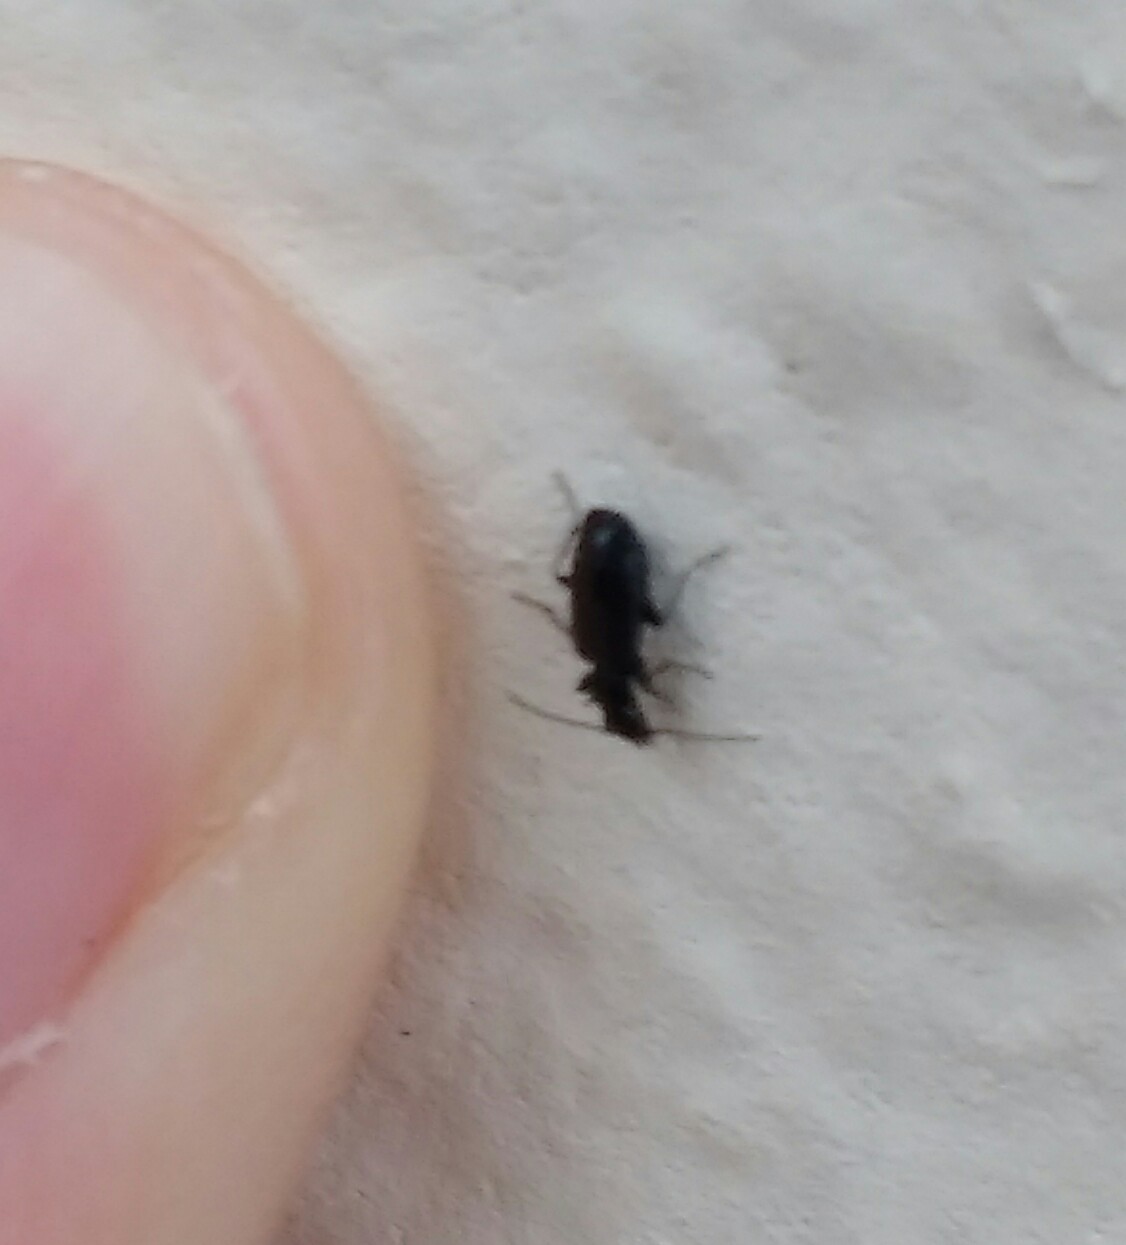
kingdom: Animalia
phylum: Arthropoda
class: Insecta
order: Coleoptera
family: Carabidae
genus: Microlestes
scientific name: Microlestes minutulus
